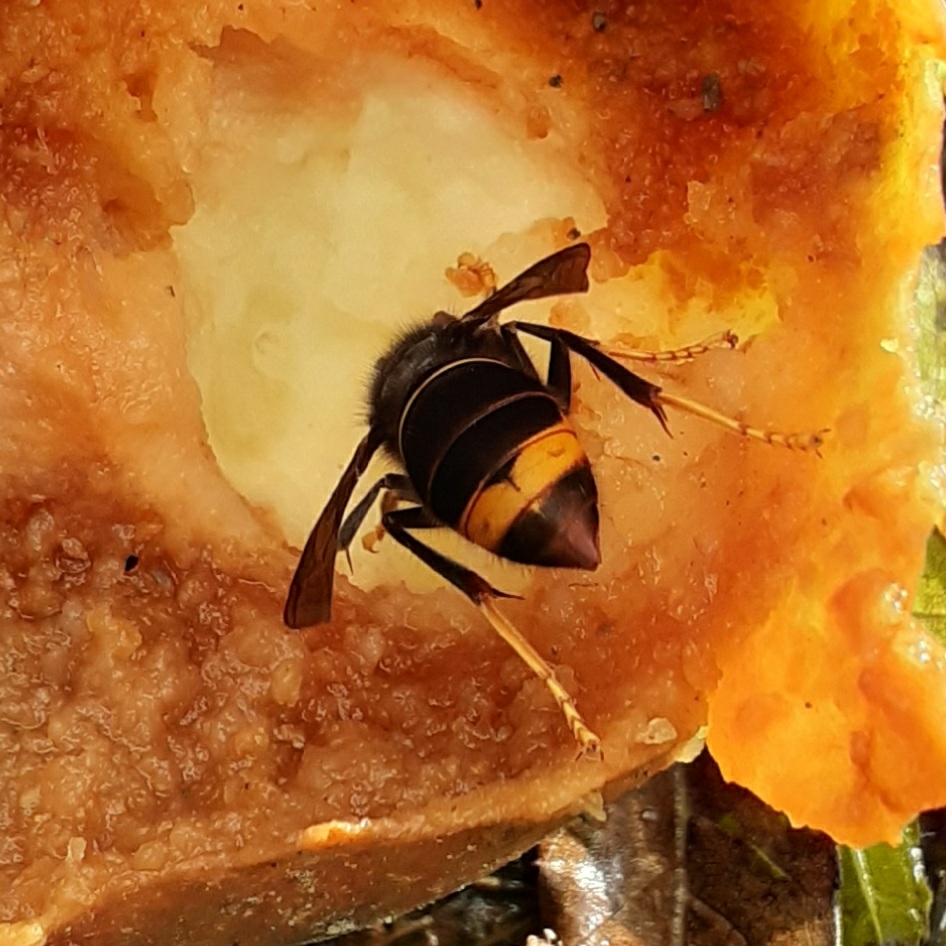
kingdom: Animalia
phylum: Arthropoda
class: Insecta
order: Hymenoptera
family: Vespidae
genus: Vespa
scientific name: Vespa velutina
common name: Asian hornet
